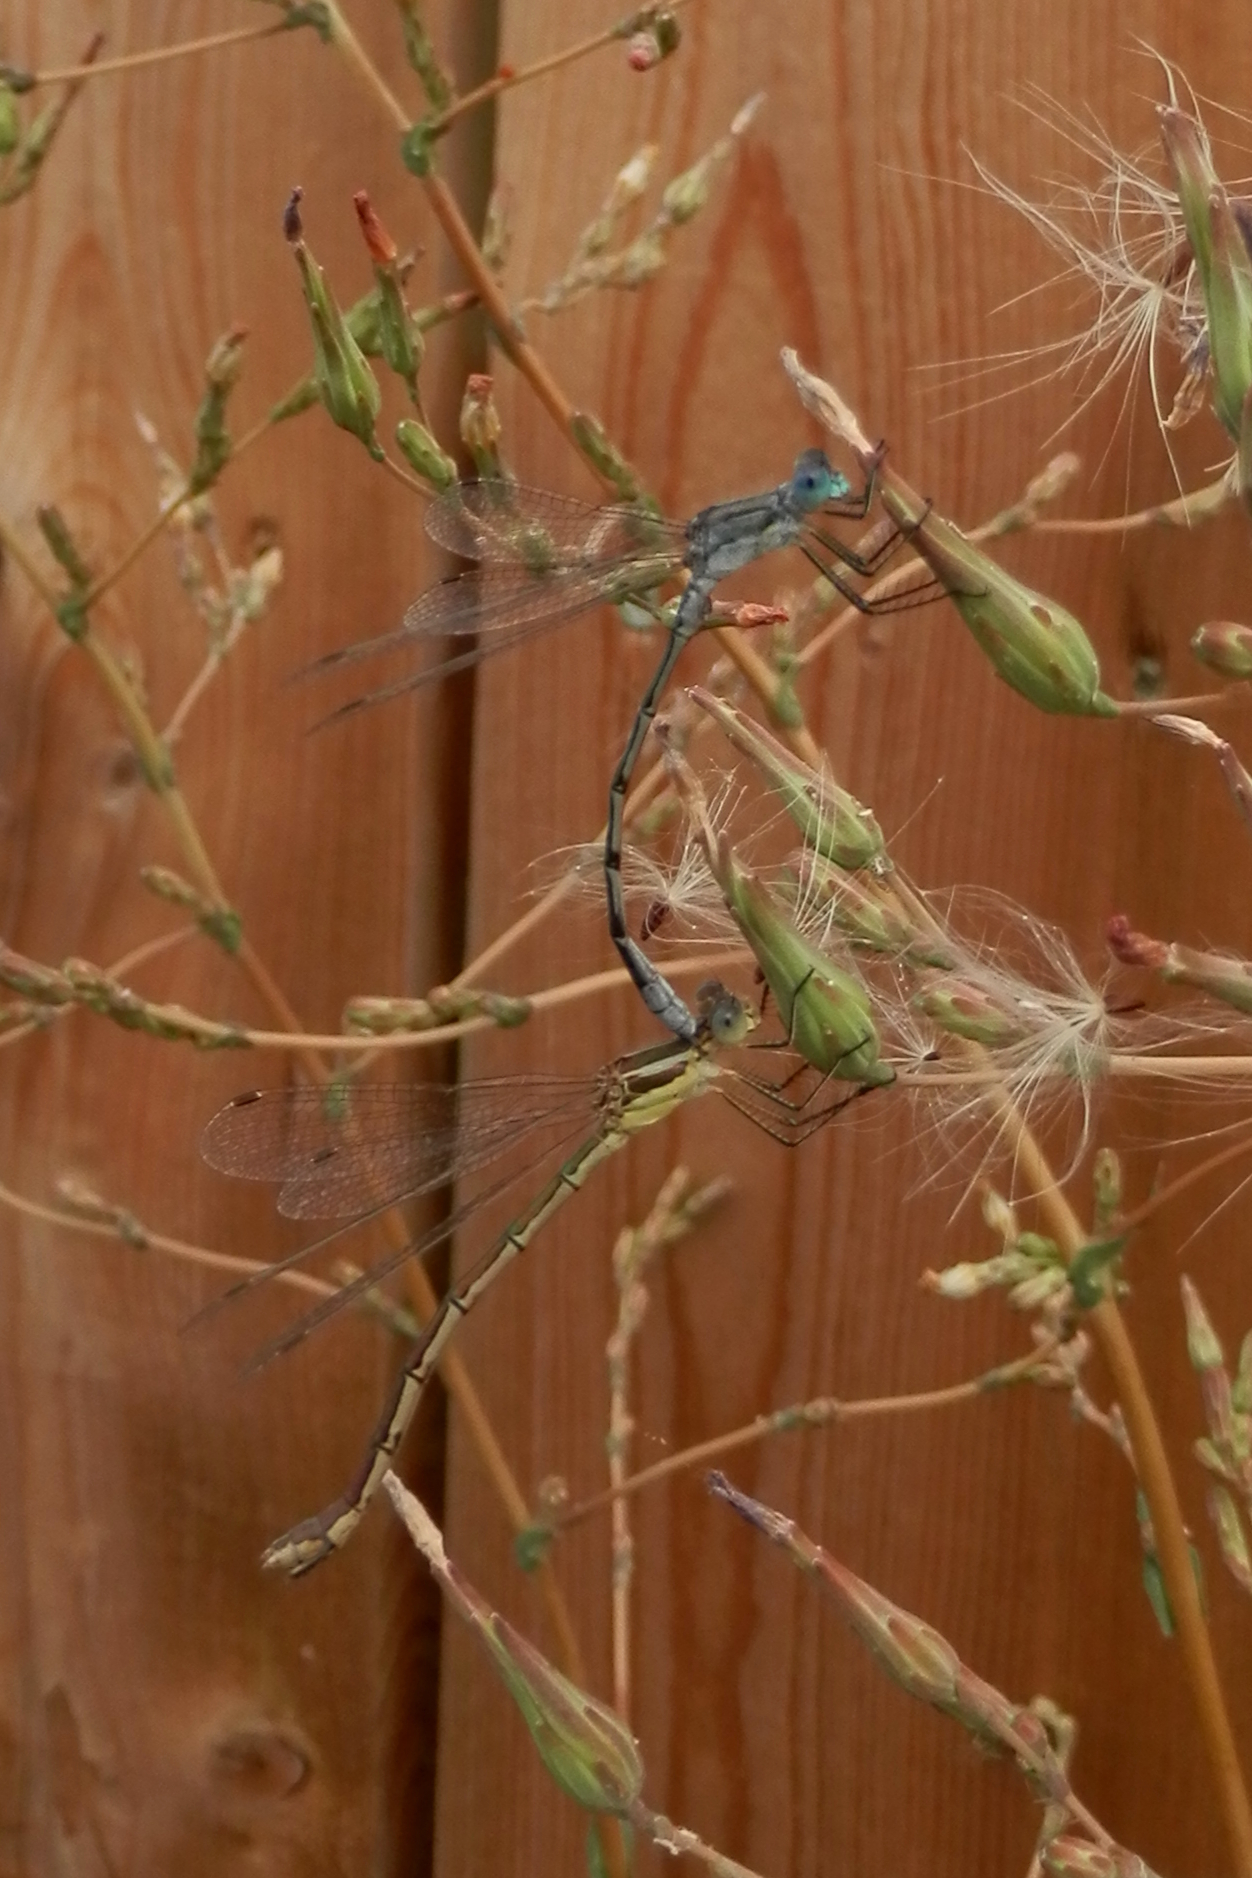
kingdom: Plantae
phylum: Tracheophyta
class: Magnoliopsida
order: Asterales
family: Asteraceae
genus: Lactuca
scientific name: Lactuca serriola
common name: Prickly lettuce
